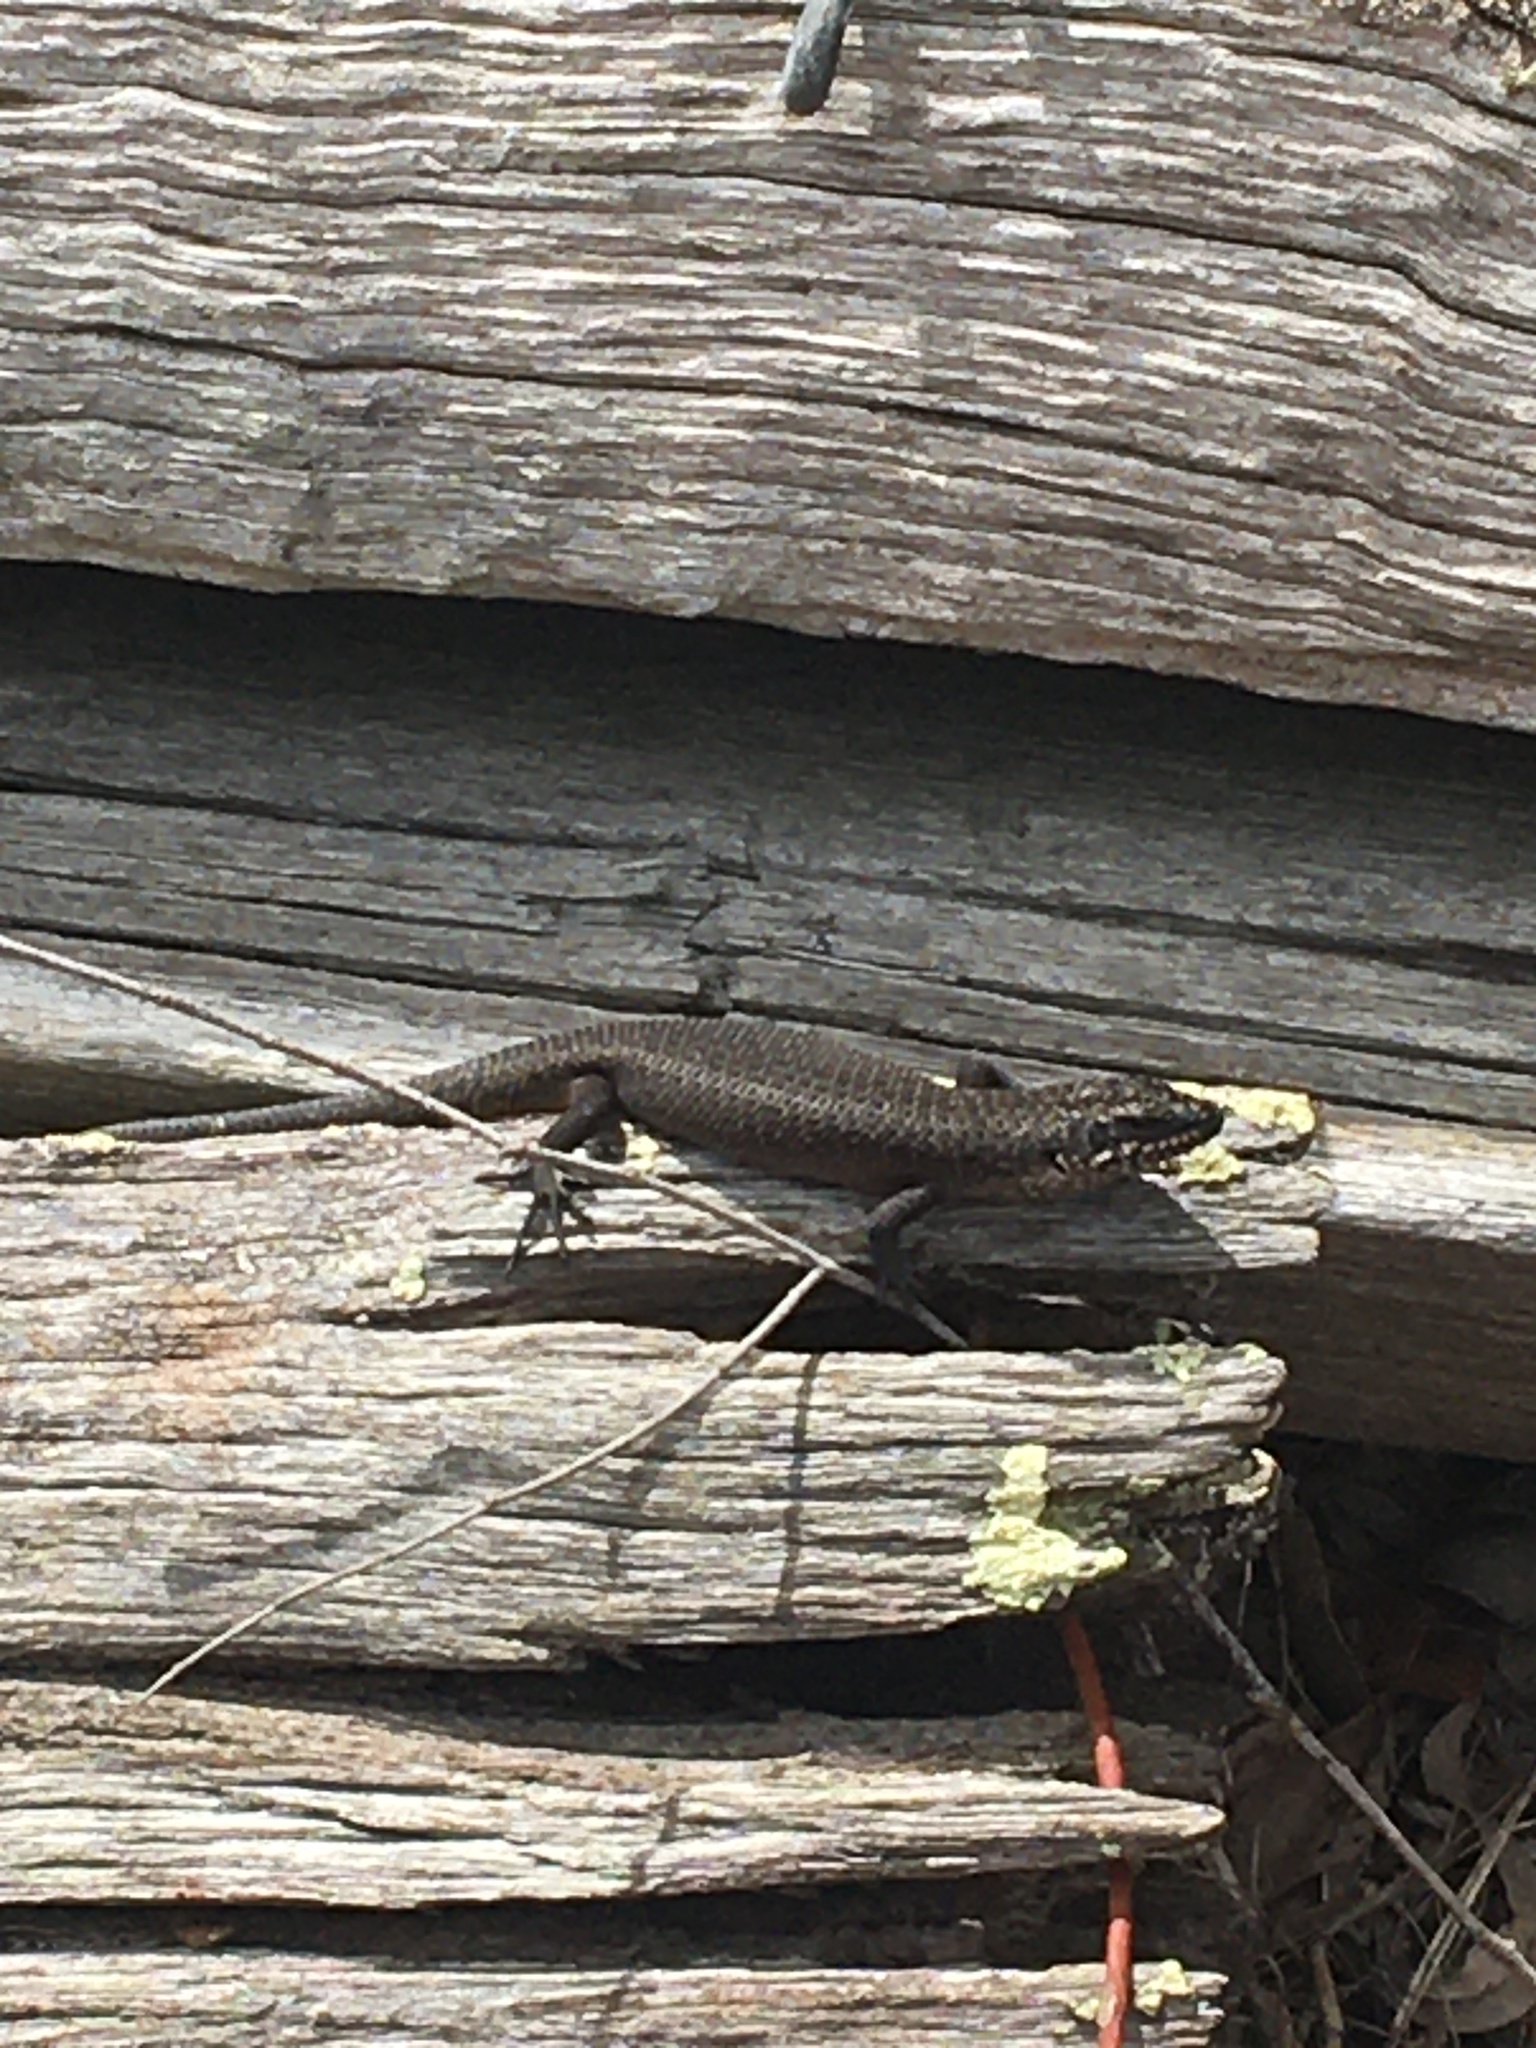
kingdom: Animalia
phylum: Chordata
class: Squamata
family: Scincidae
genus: Egernia
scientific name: Egernia saxatilis
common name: Black crevice-skink
